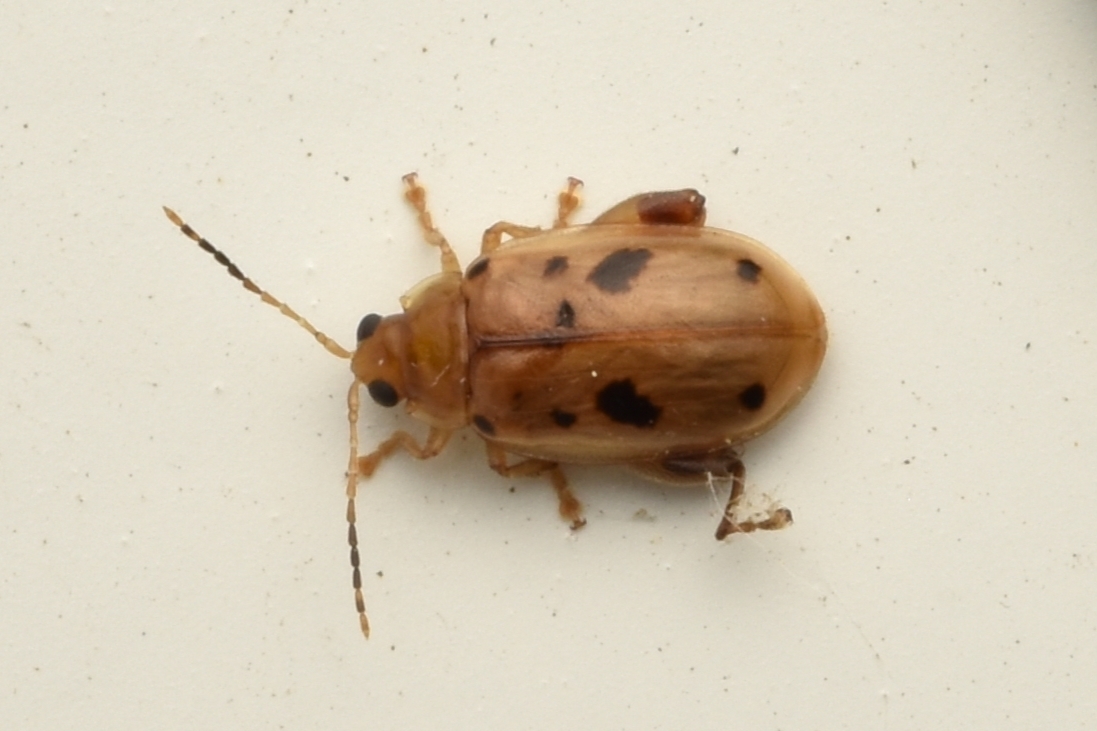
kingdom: Animalia
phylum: Arthropoda
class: Insecta
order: Coleoptera
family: Chrysomelidae
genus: Capraita
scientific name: Capraita nigrosignata
